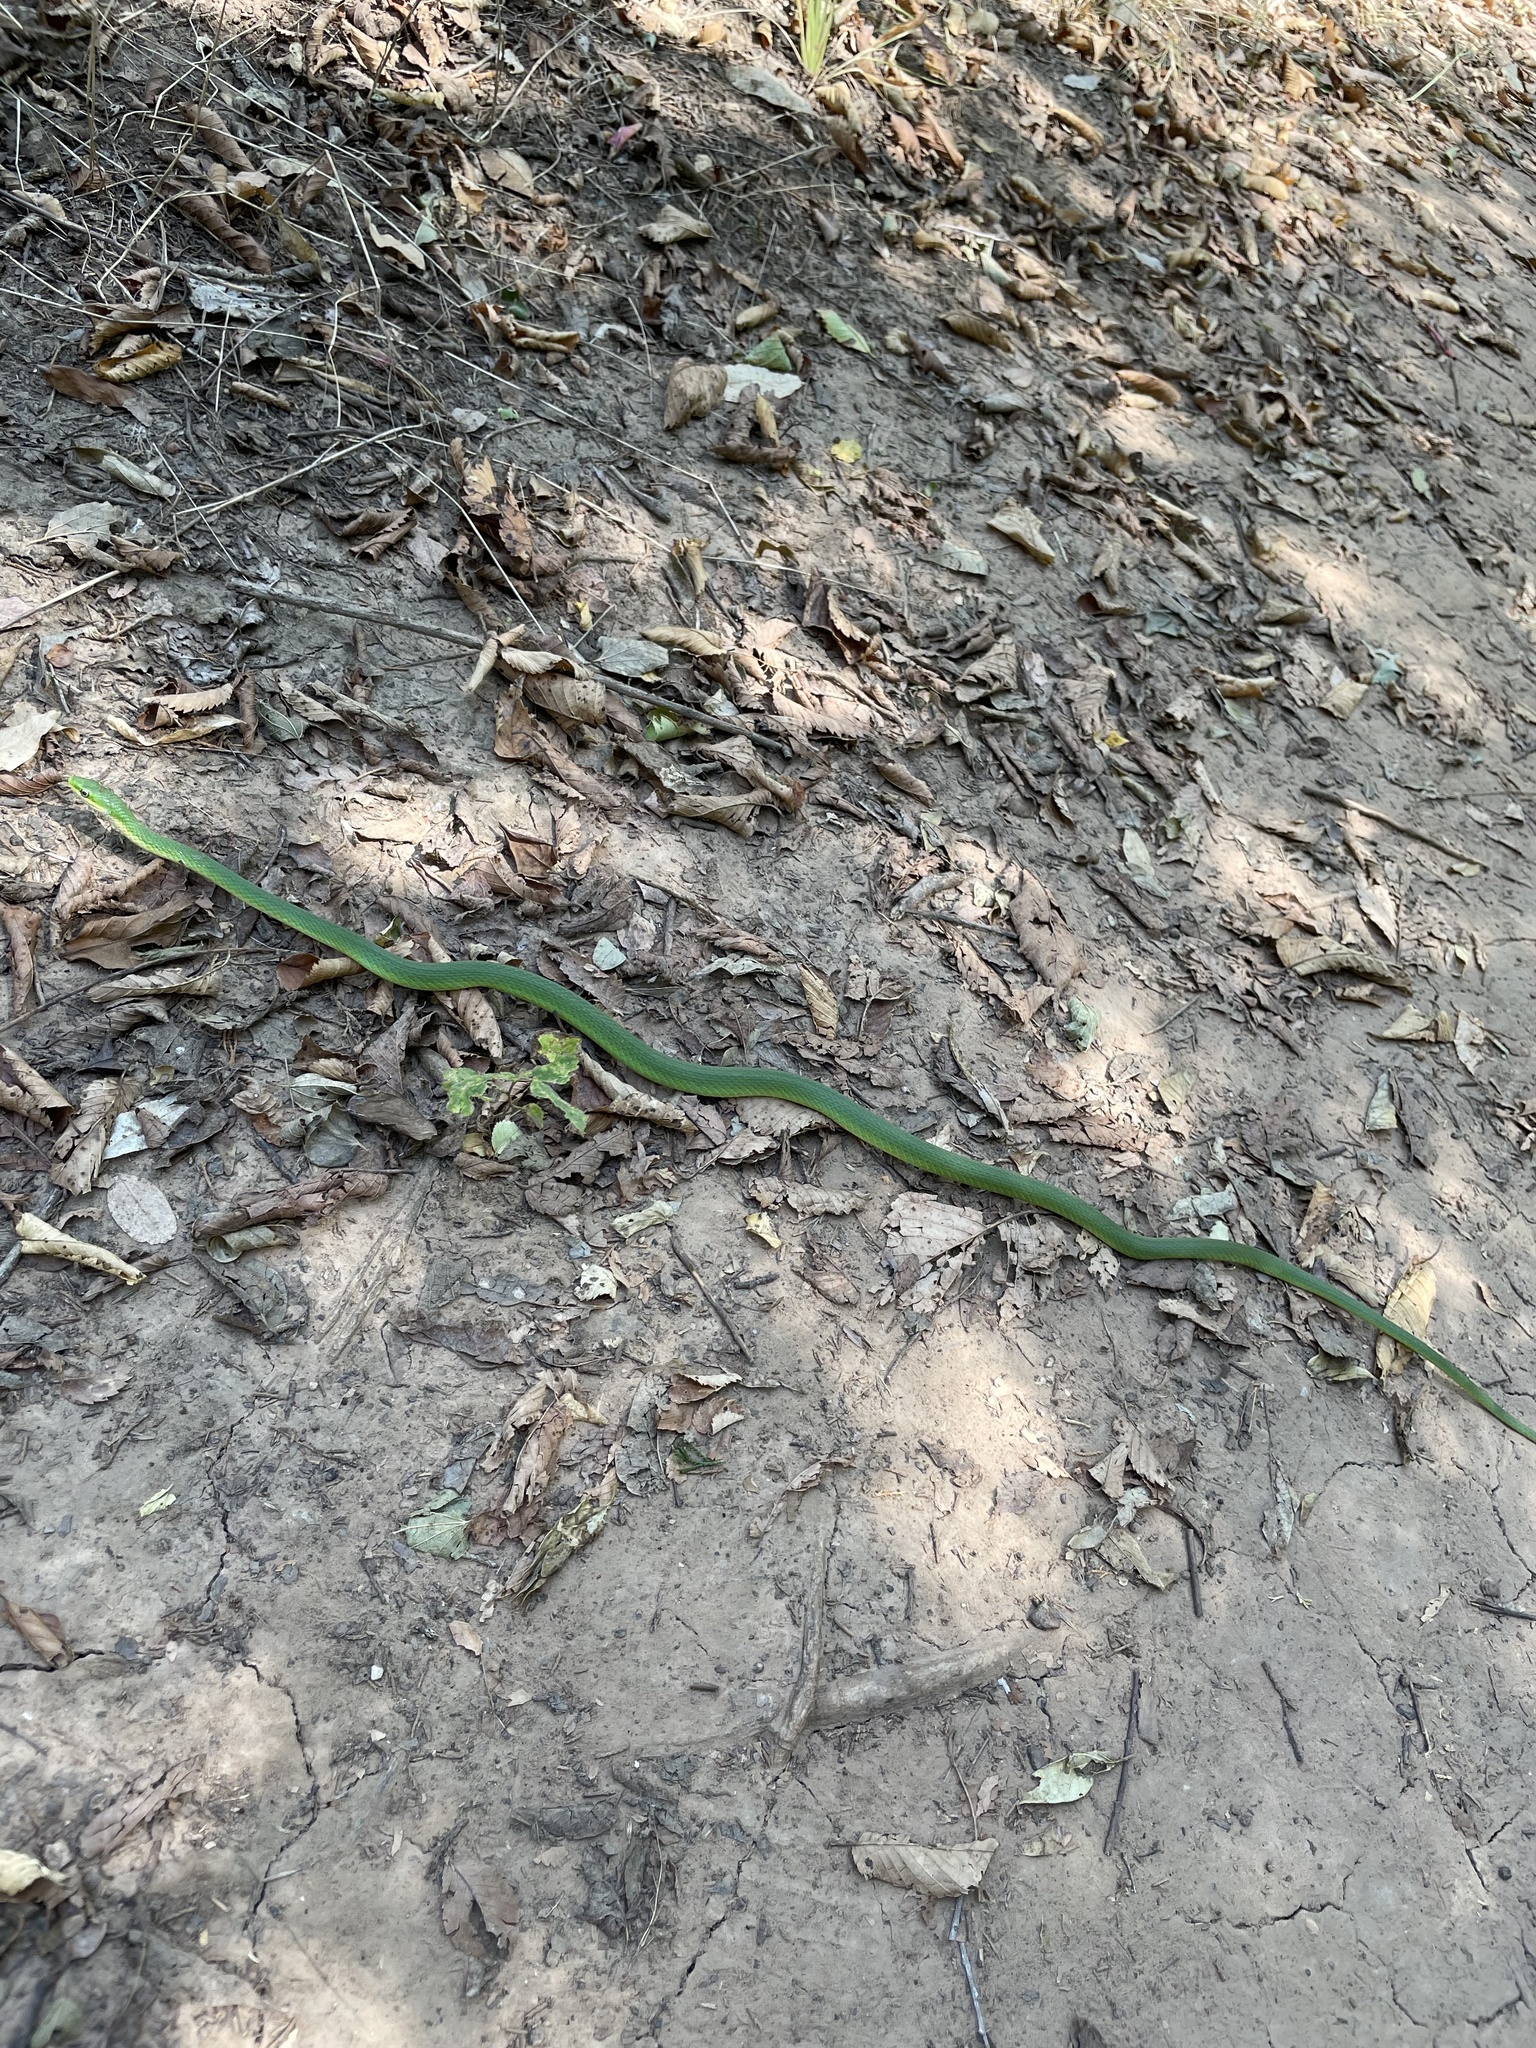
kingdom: Animalia
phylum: Chordata
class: Squamata
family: Colubridae
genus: Opheodrys
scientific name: Opheodrys aestivus
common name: Rough greensnake
